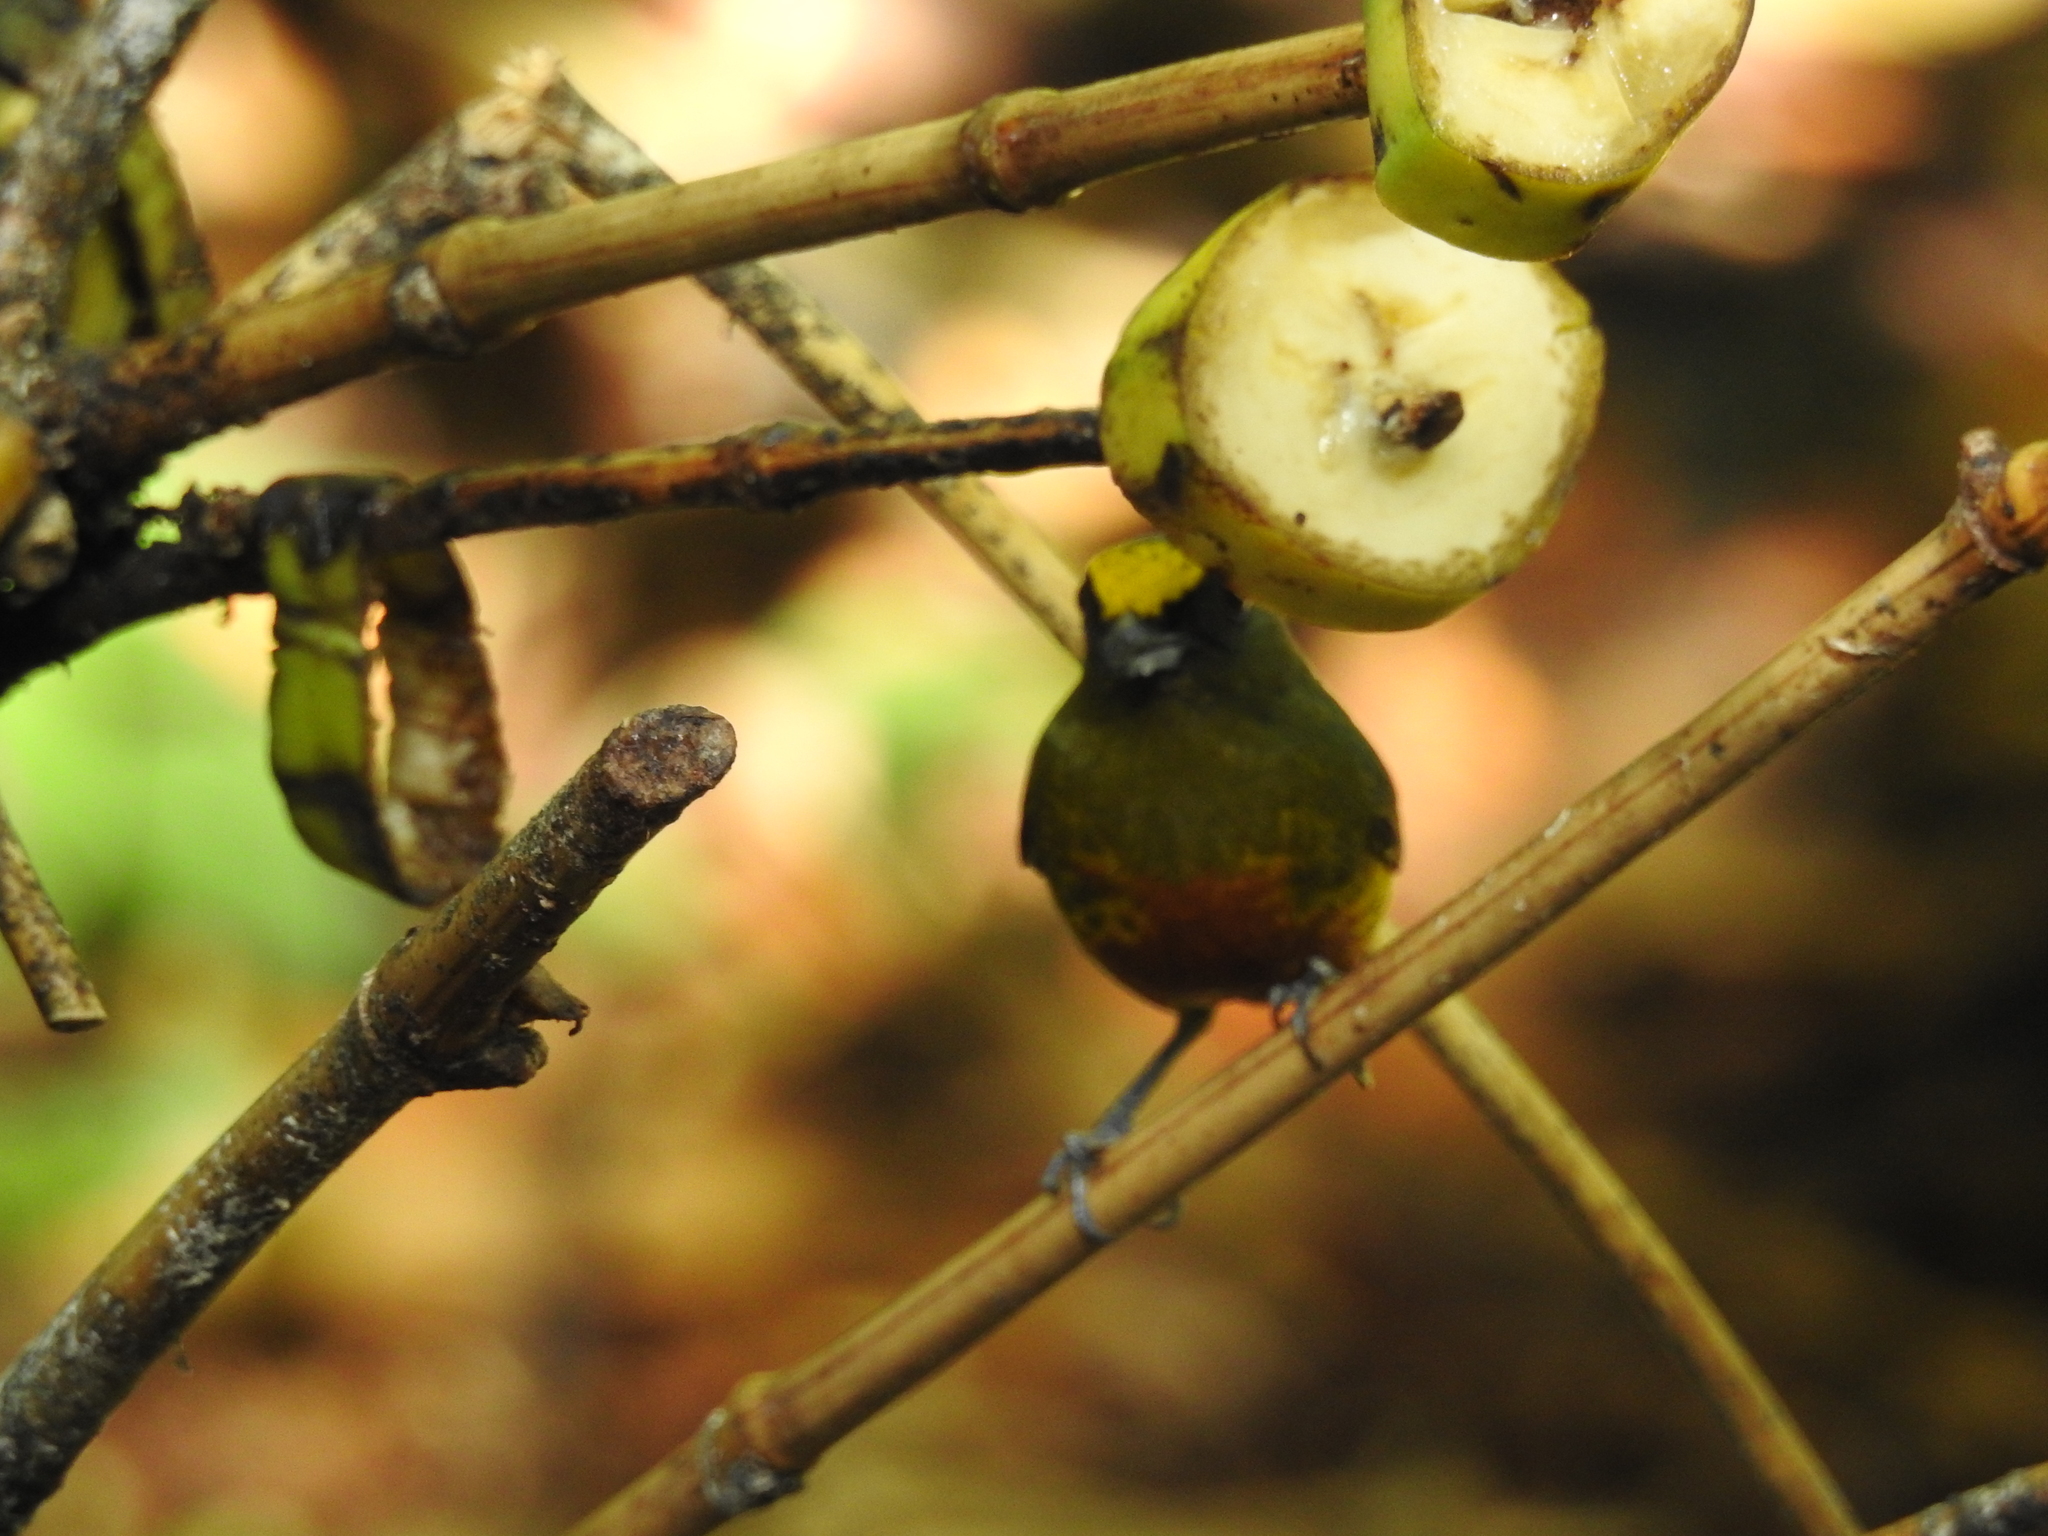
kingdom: Animalia
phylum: Chordata
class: Aves
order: Passeriformes
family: Fringillidae
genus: Euphonia
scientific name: Euphonia gouldi
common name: Olive-backed euphonia
